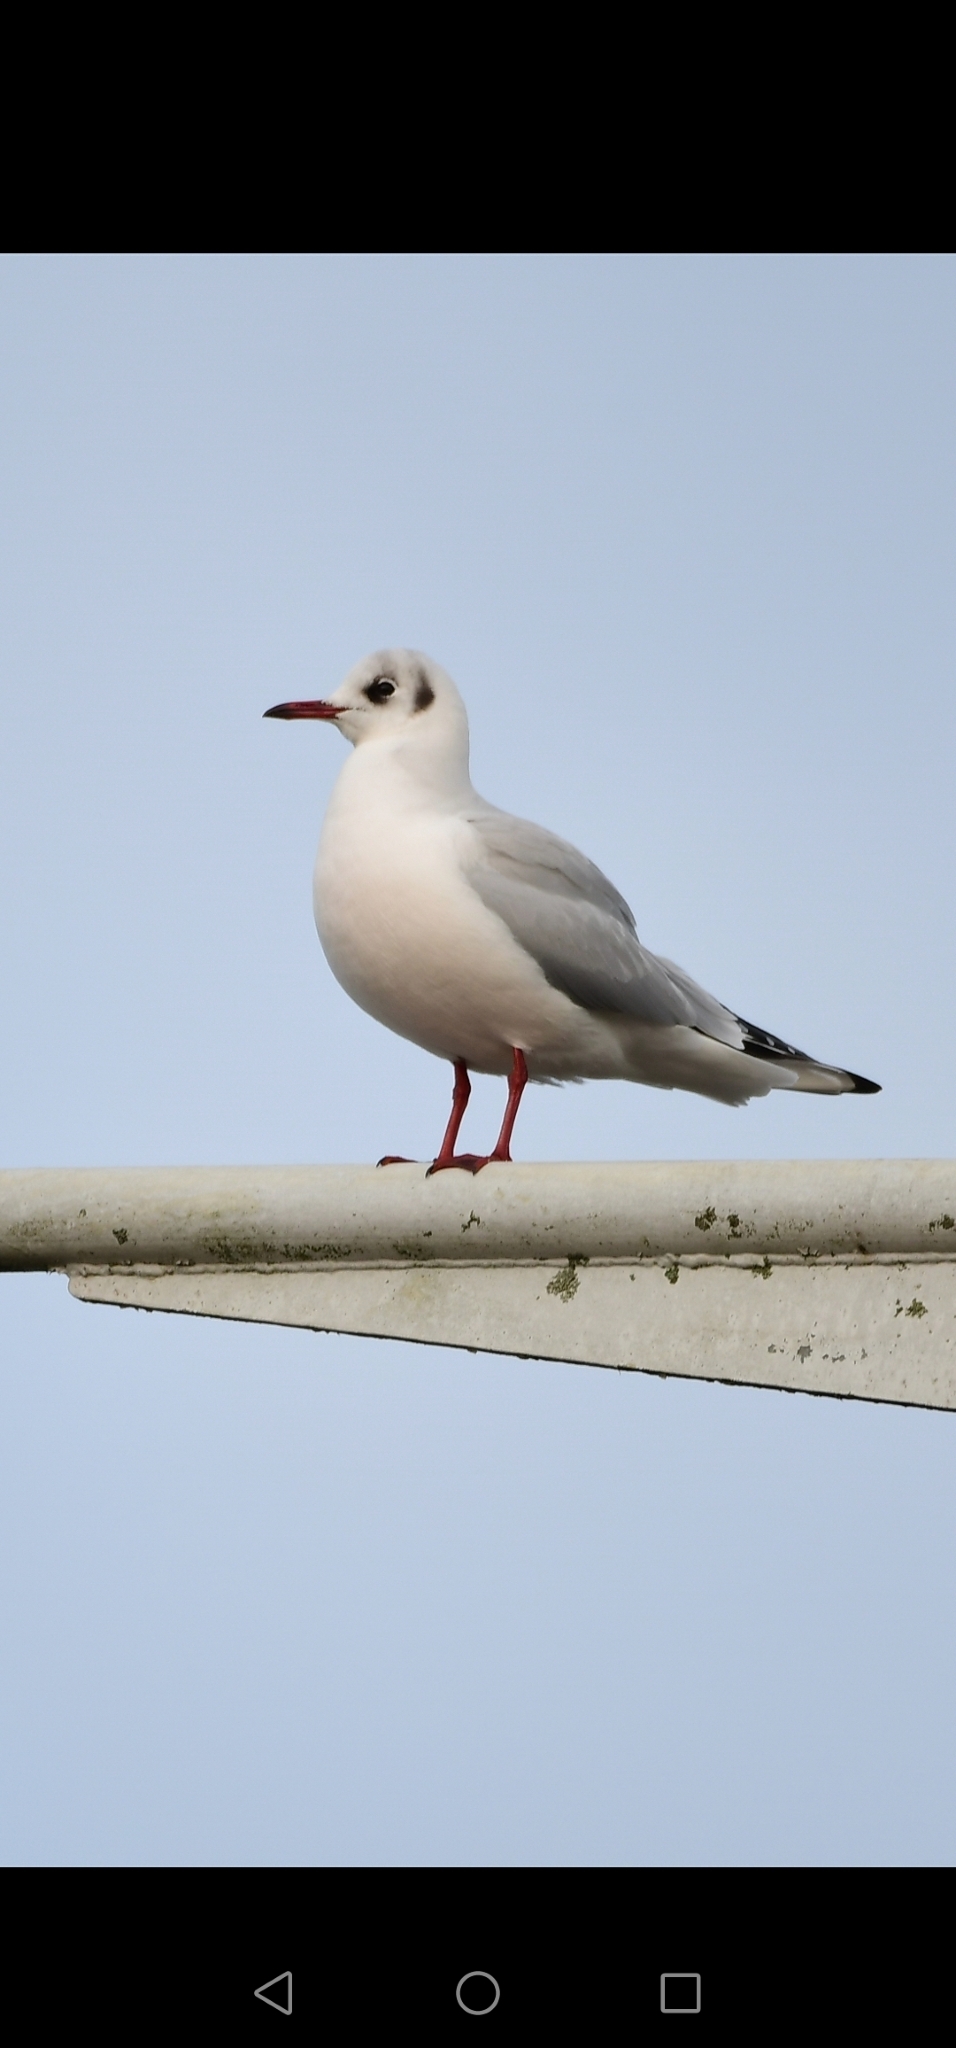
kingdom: Animalia
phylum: Chordata
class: Aves
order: Charadriiformes
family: Laridae
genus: Chroicocephalus
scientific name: Chroicocephalus ridibundus
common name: Black-headed gull
